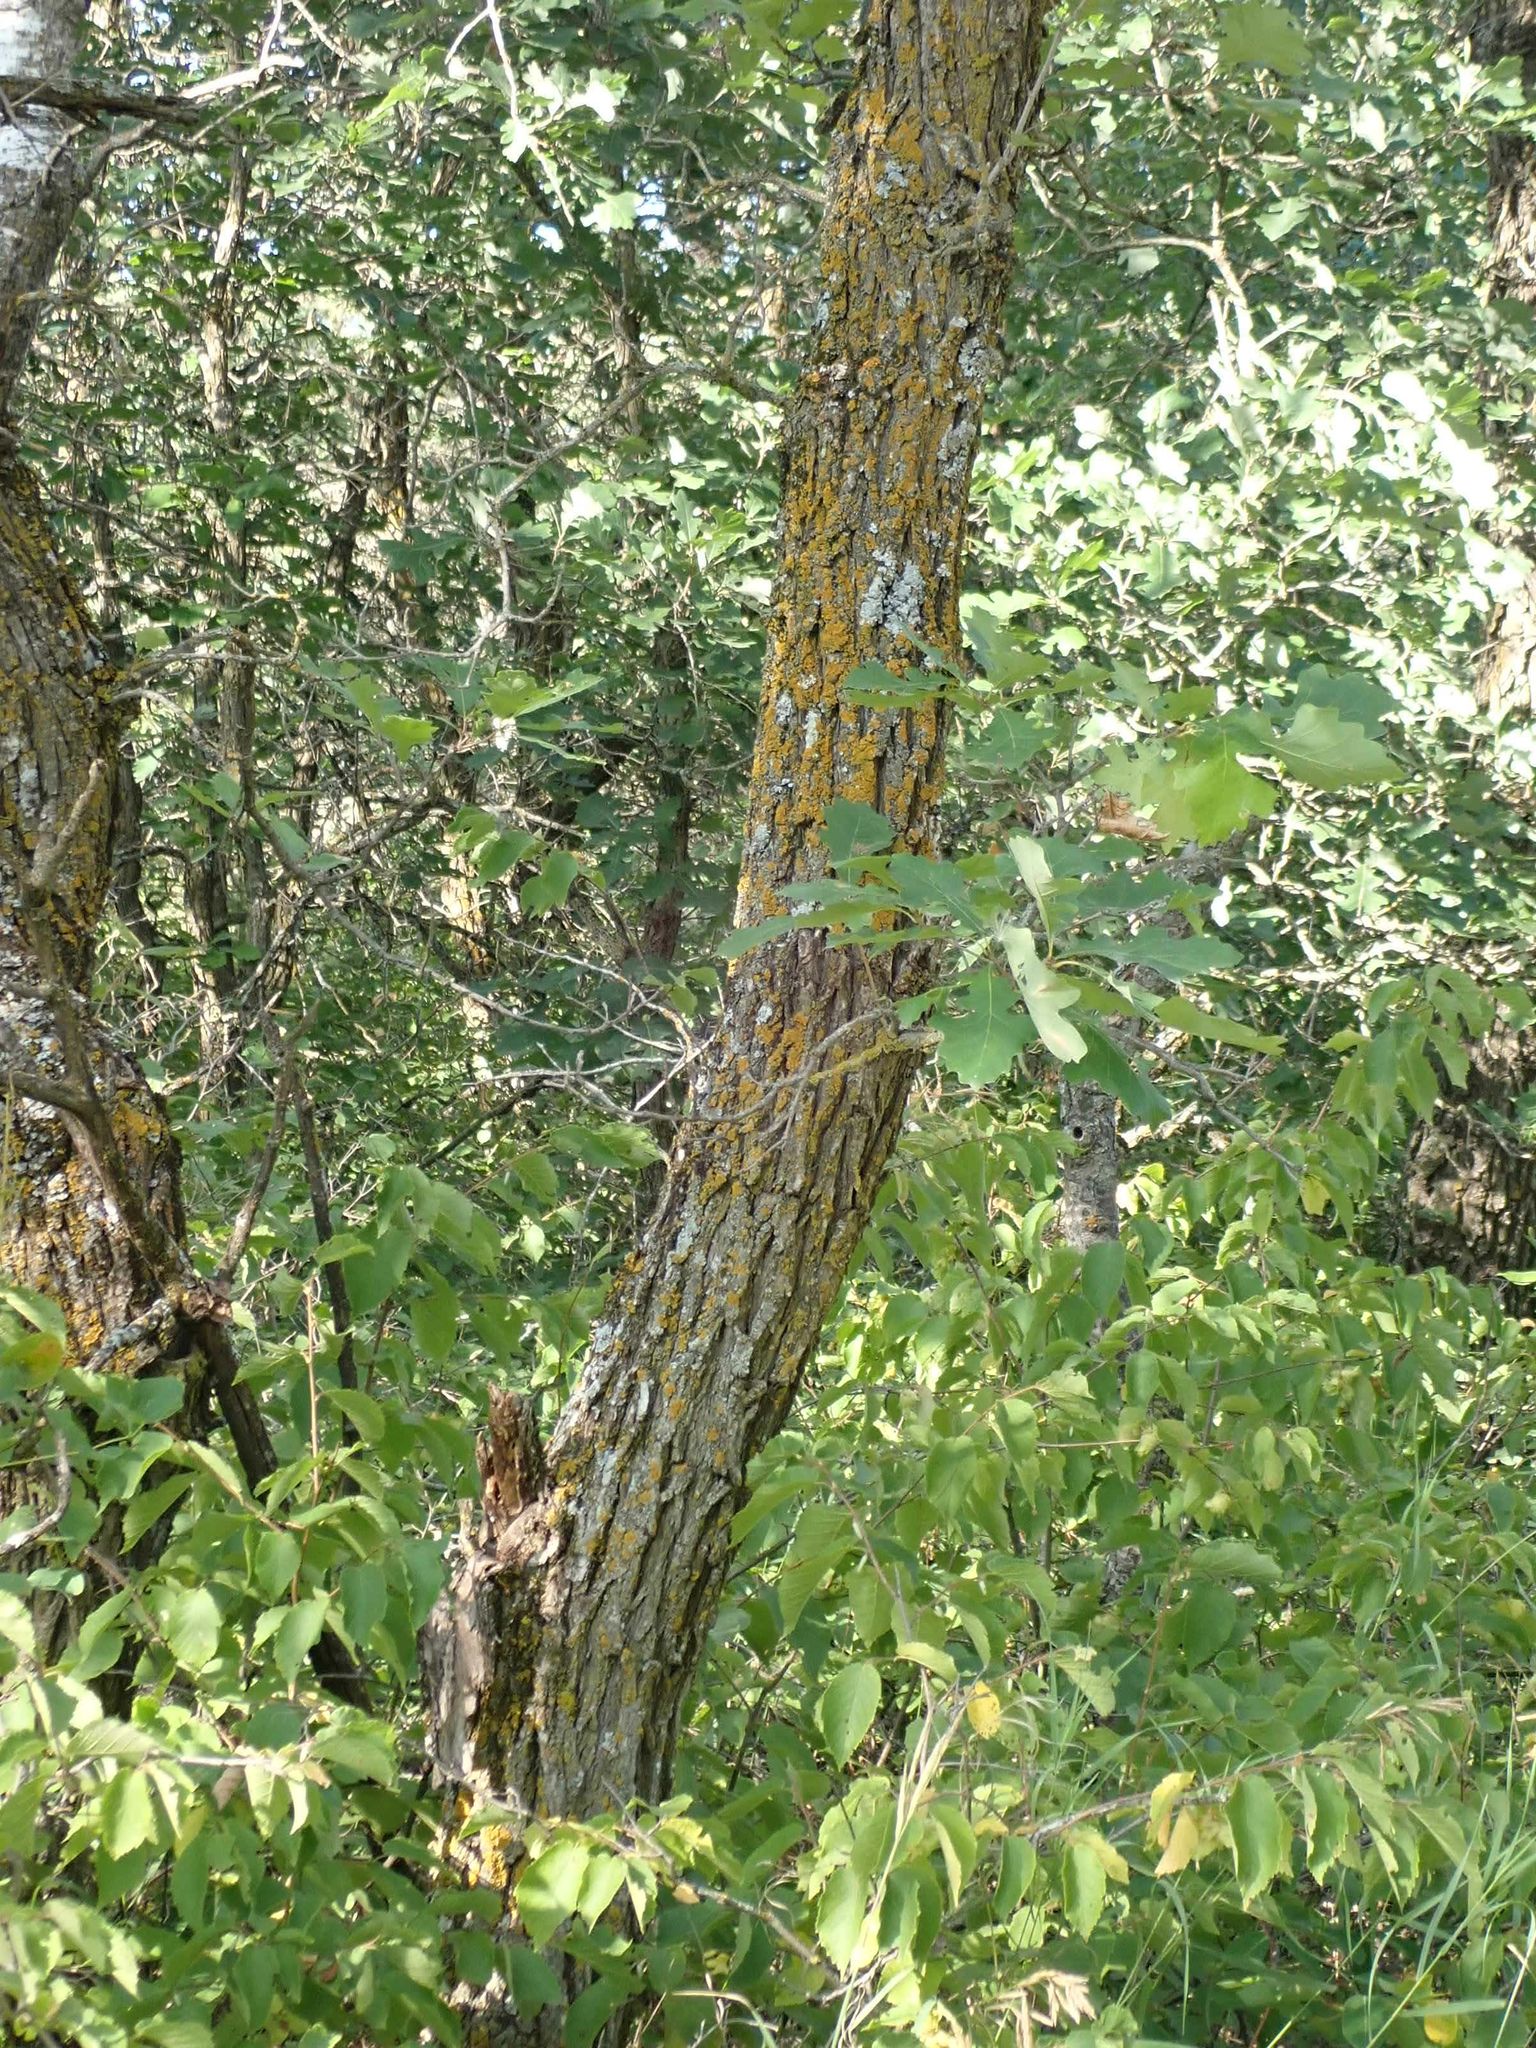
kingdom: Plantae
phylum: Tracheophyta
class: Magnoliopsida
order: Fagales
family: Fagaceae
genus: Quercus
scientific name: Quercus macrocarpa
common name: Bur oak
